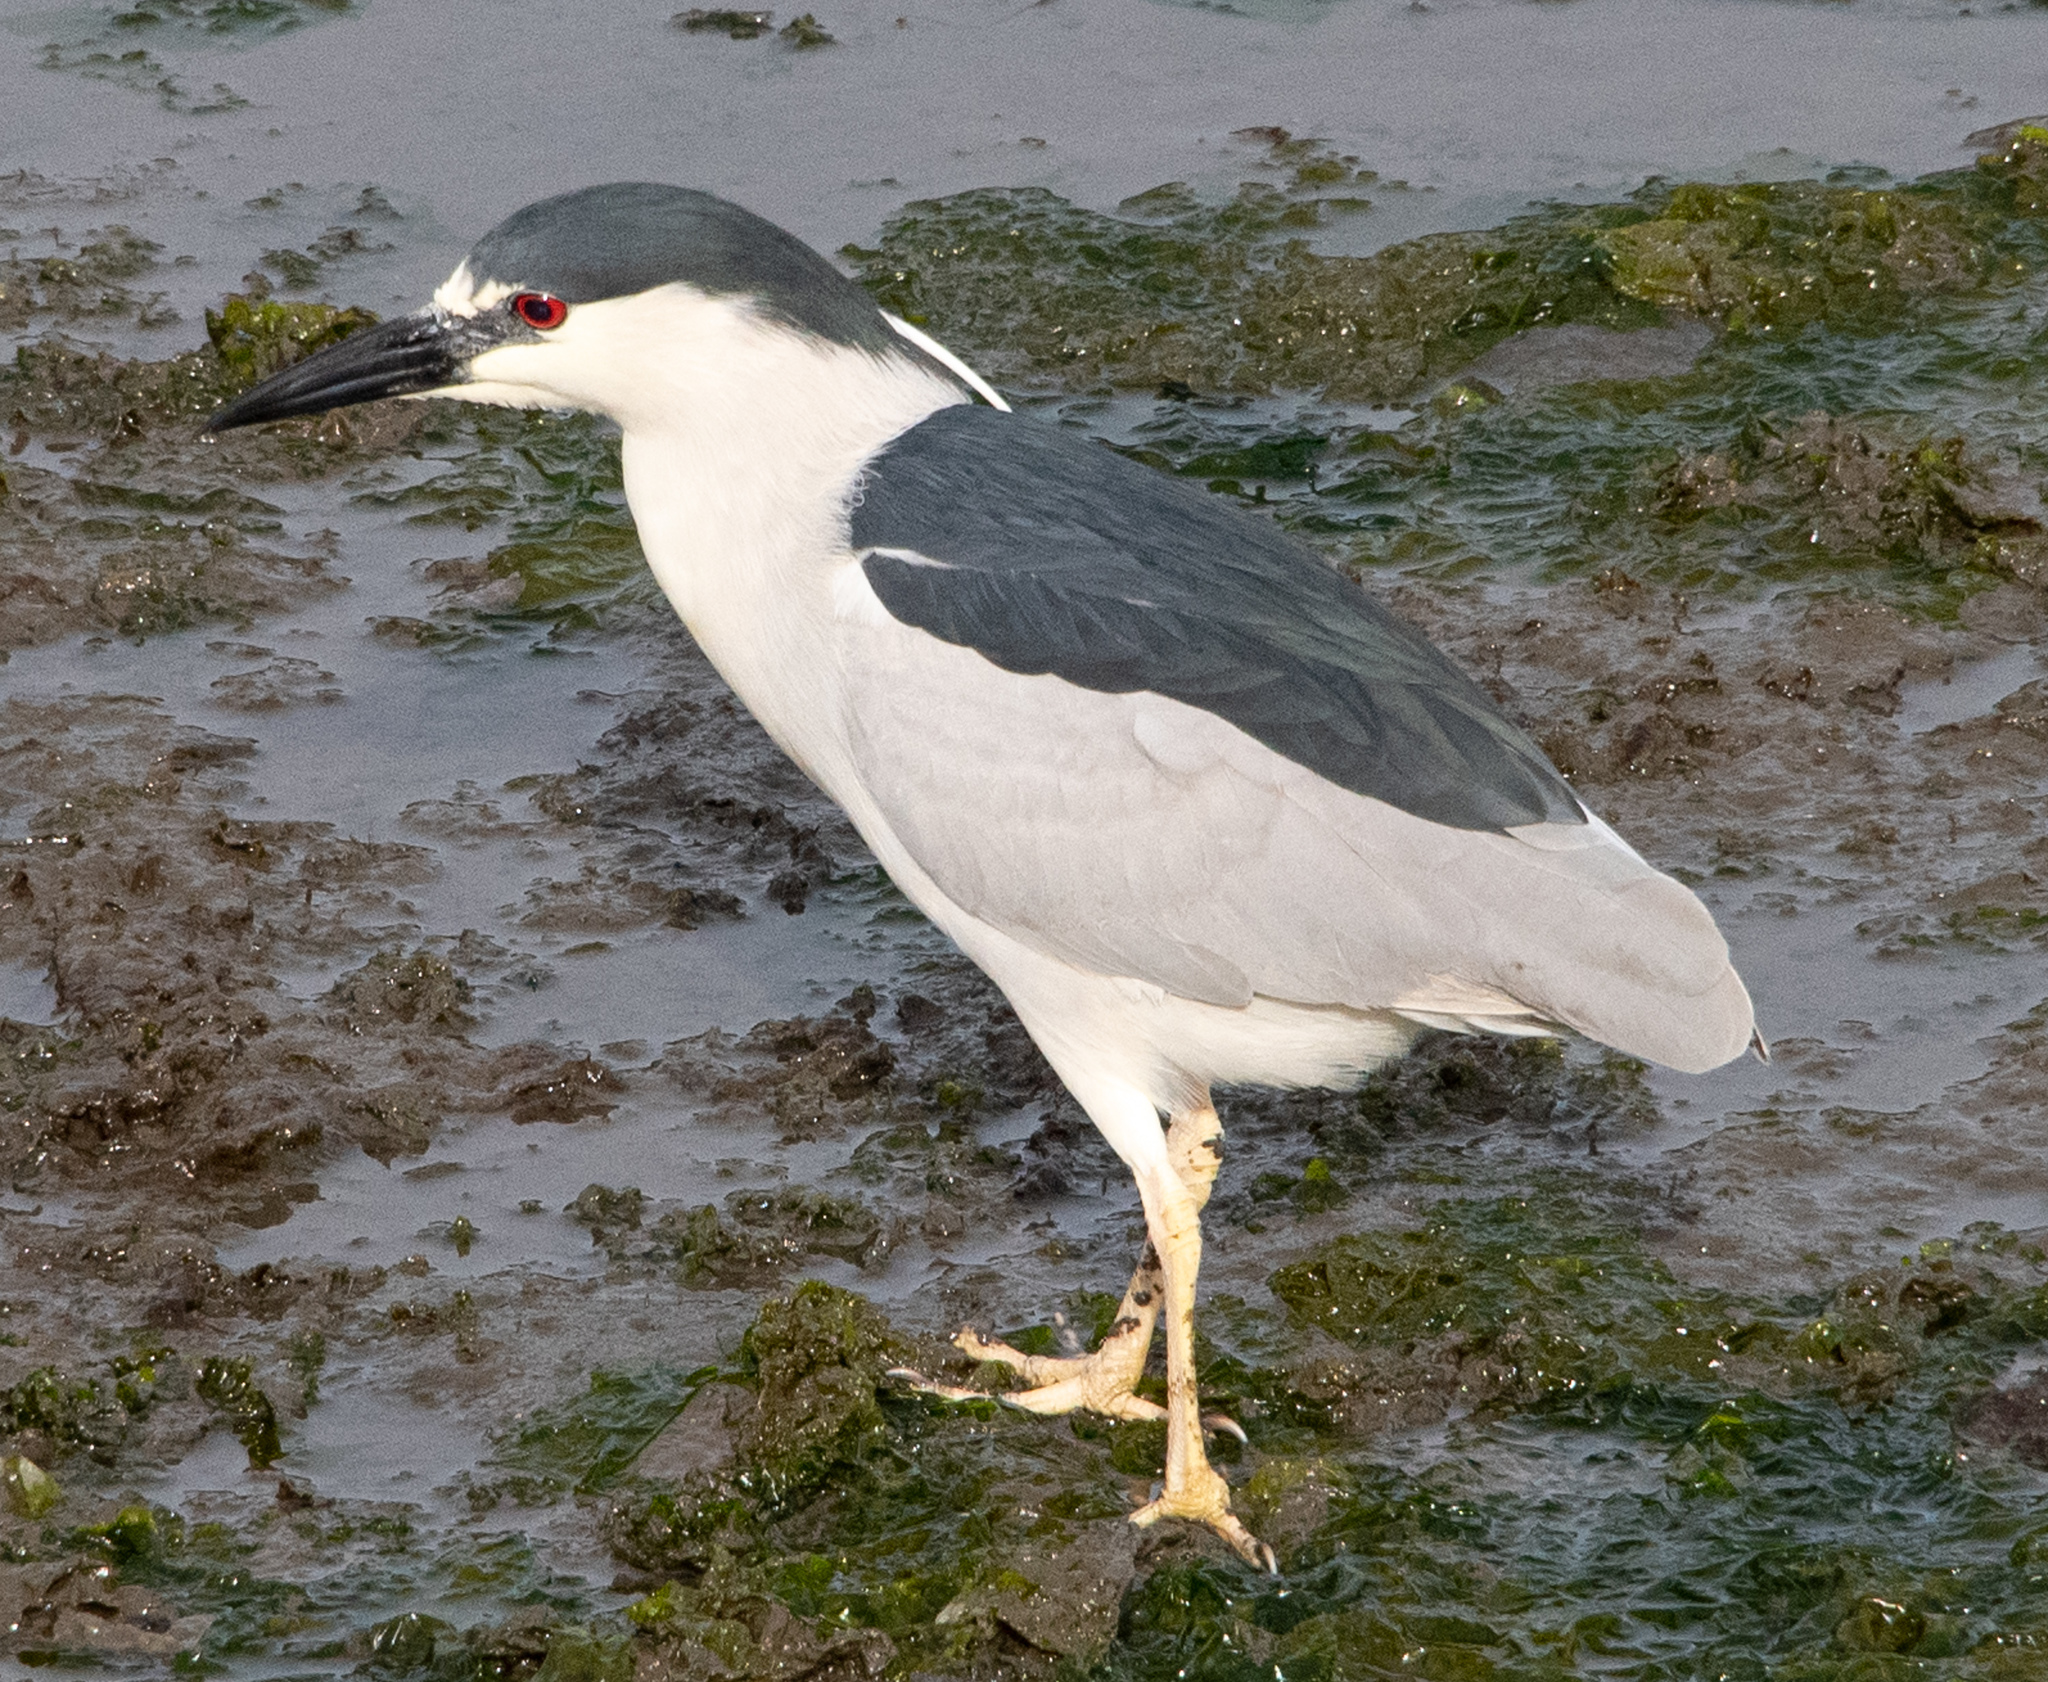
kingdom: Animalia
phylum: Chordata
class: Aves
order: Pelecaniformes
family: Ardeidae
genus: Nycticorax
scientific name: Nycticorax nycticorax
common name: Black-crowned night heron
